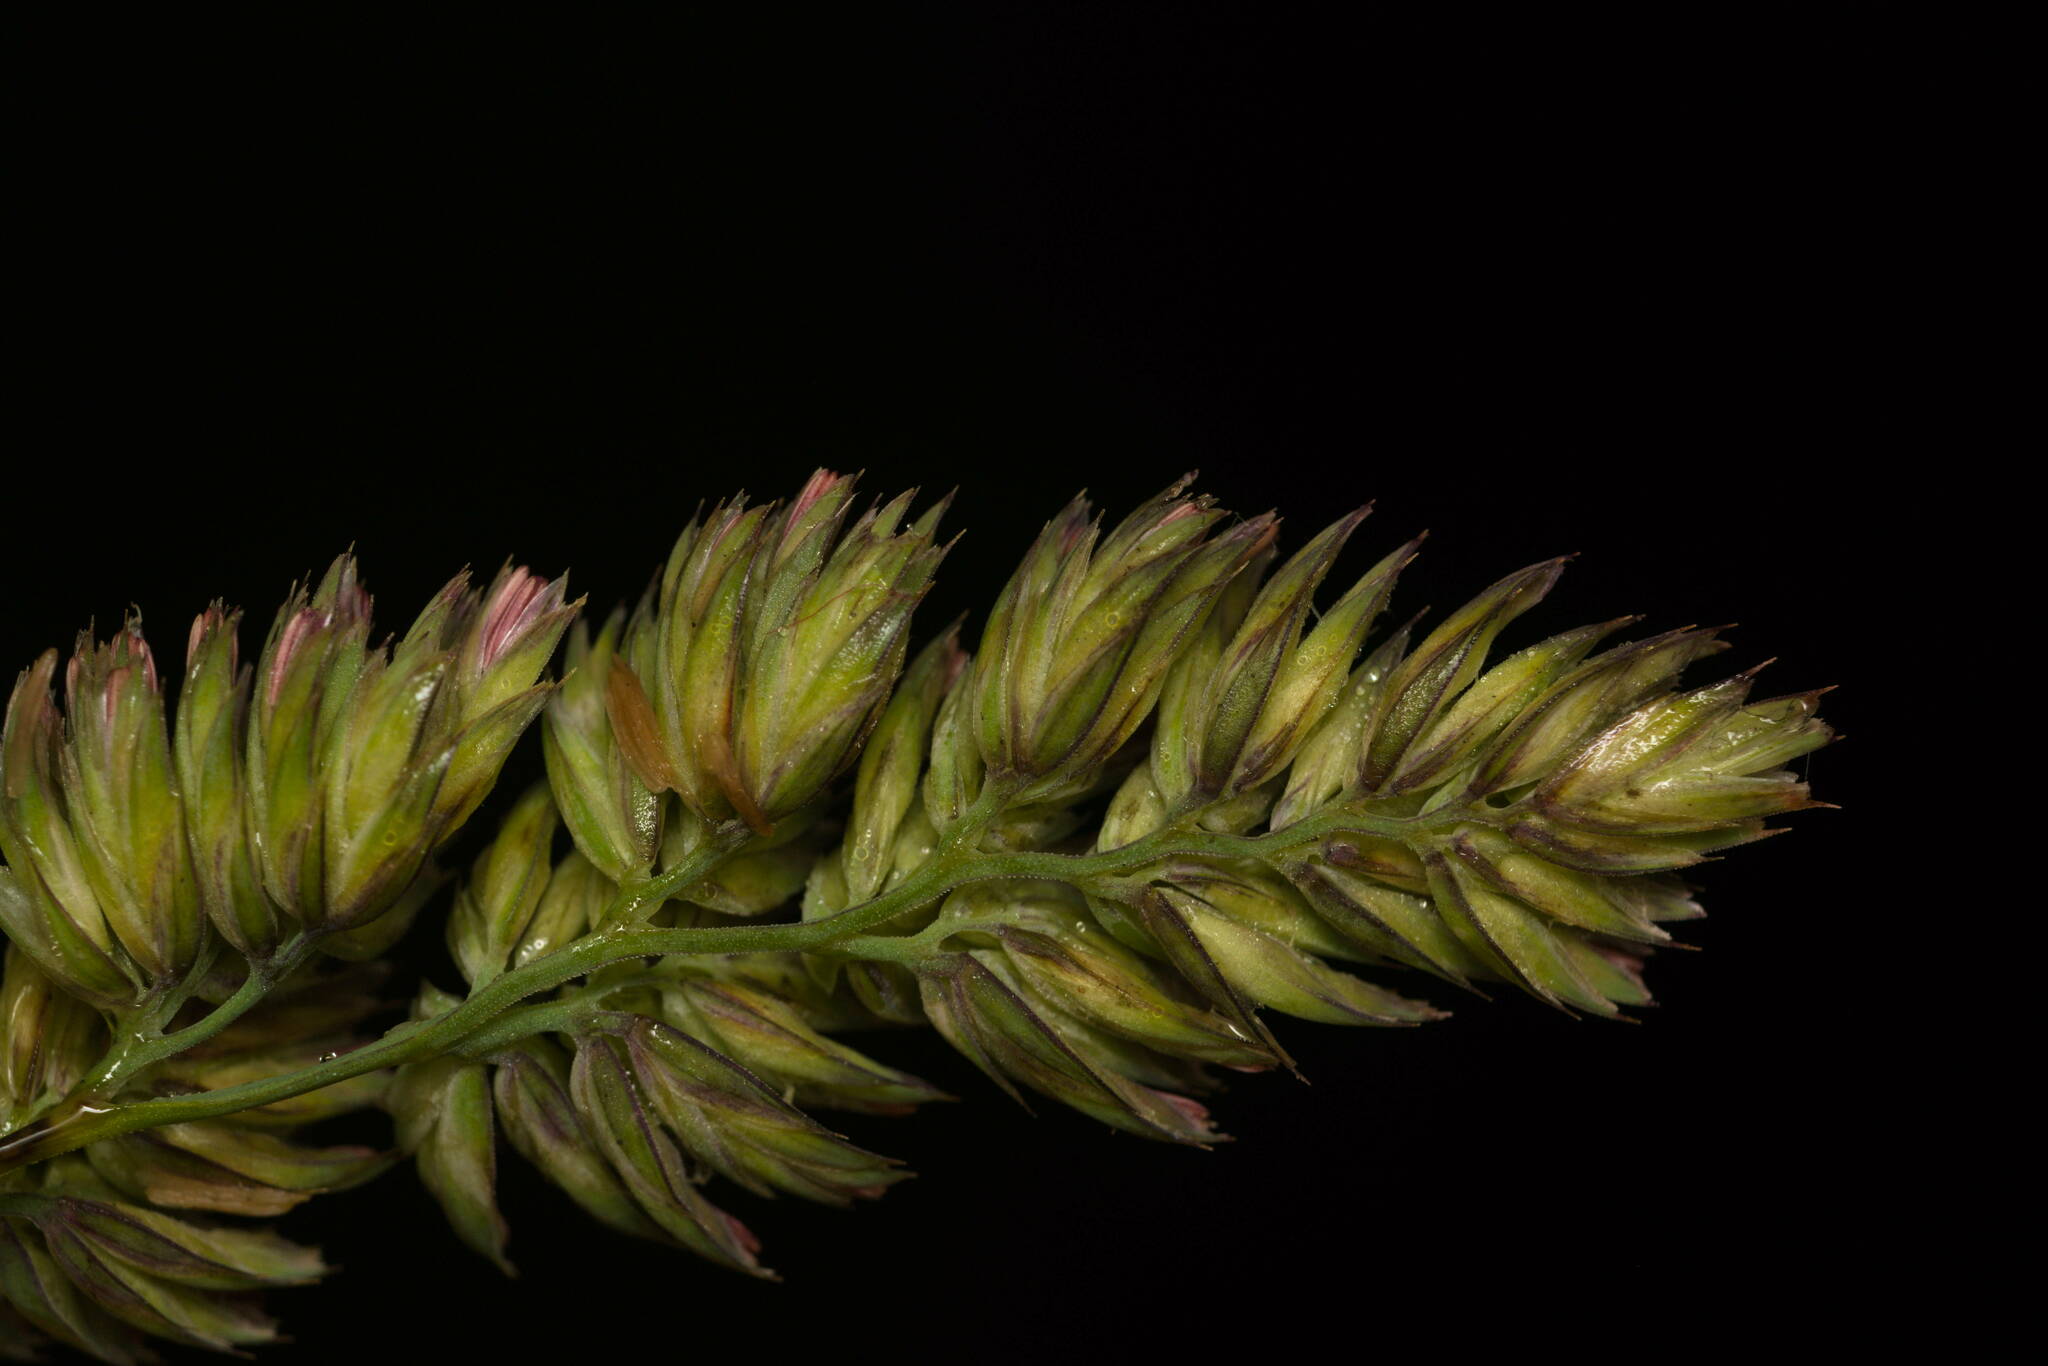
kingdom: Plantae
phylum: Tracheophyta
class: Liliopsida
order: Poales
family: Poaceae
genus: Dactylis
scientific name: Dactylis glomerata
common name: Orchardgrass
